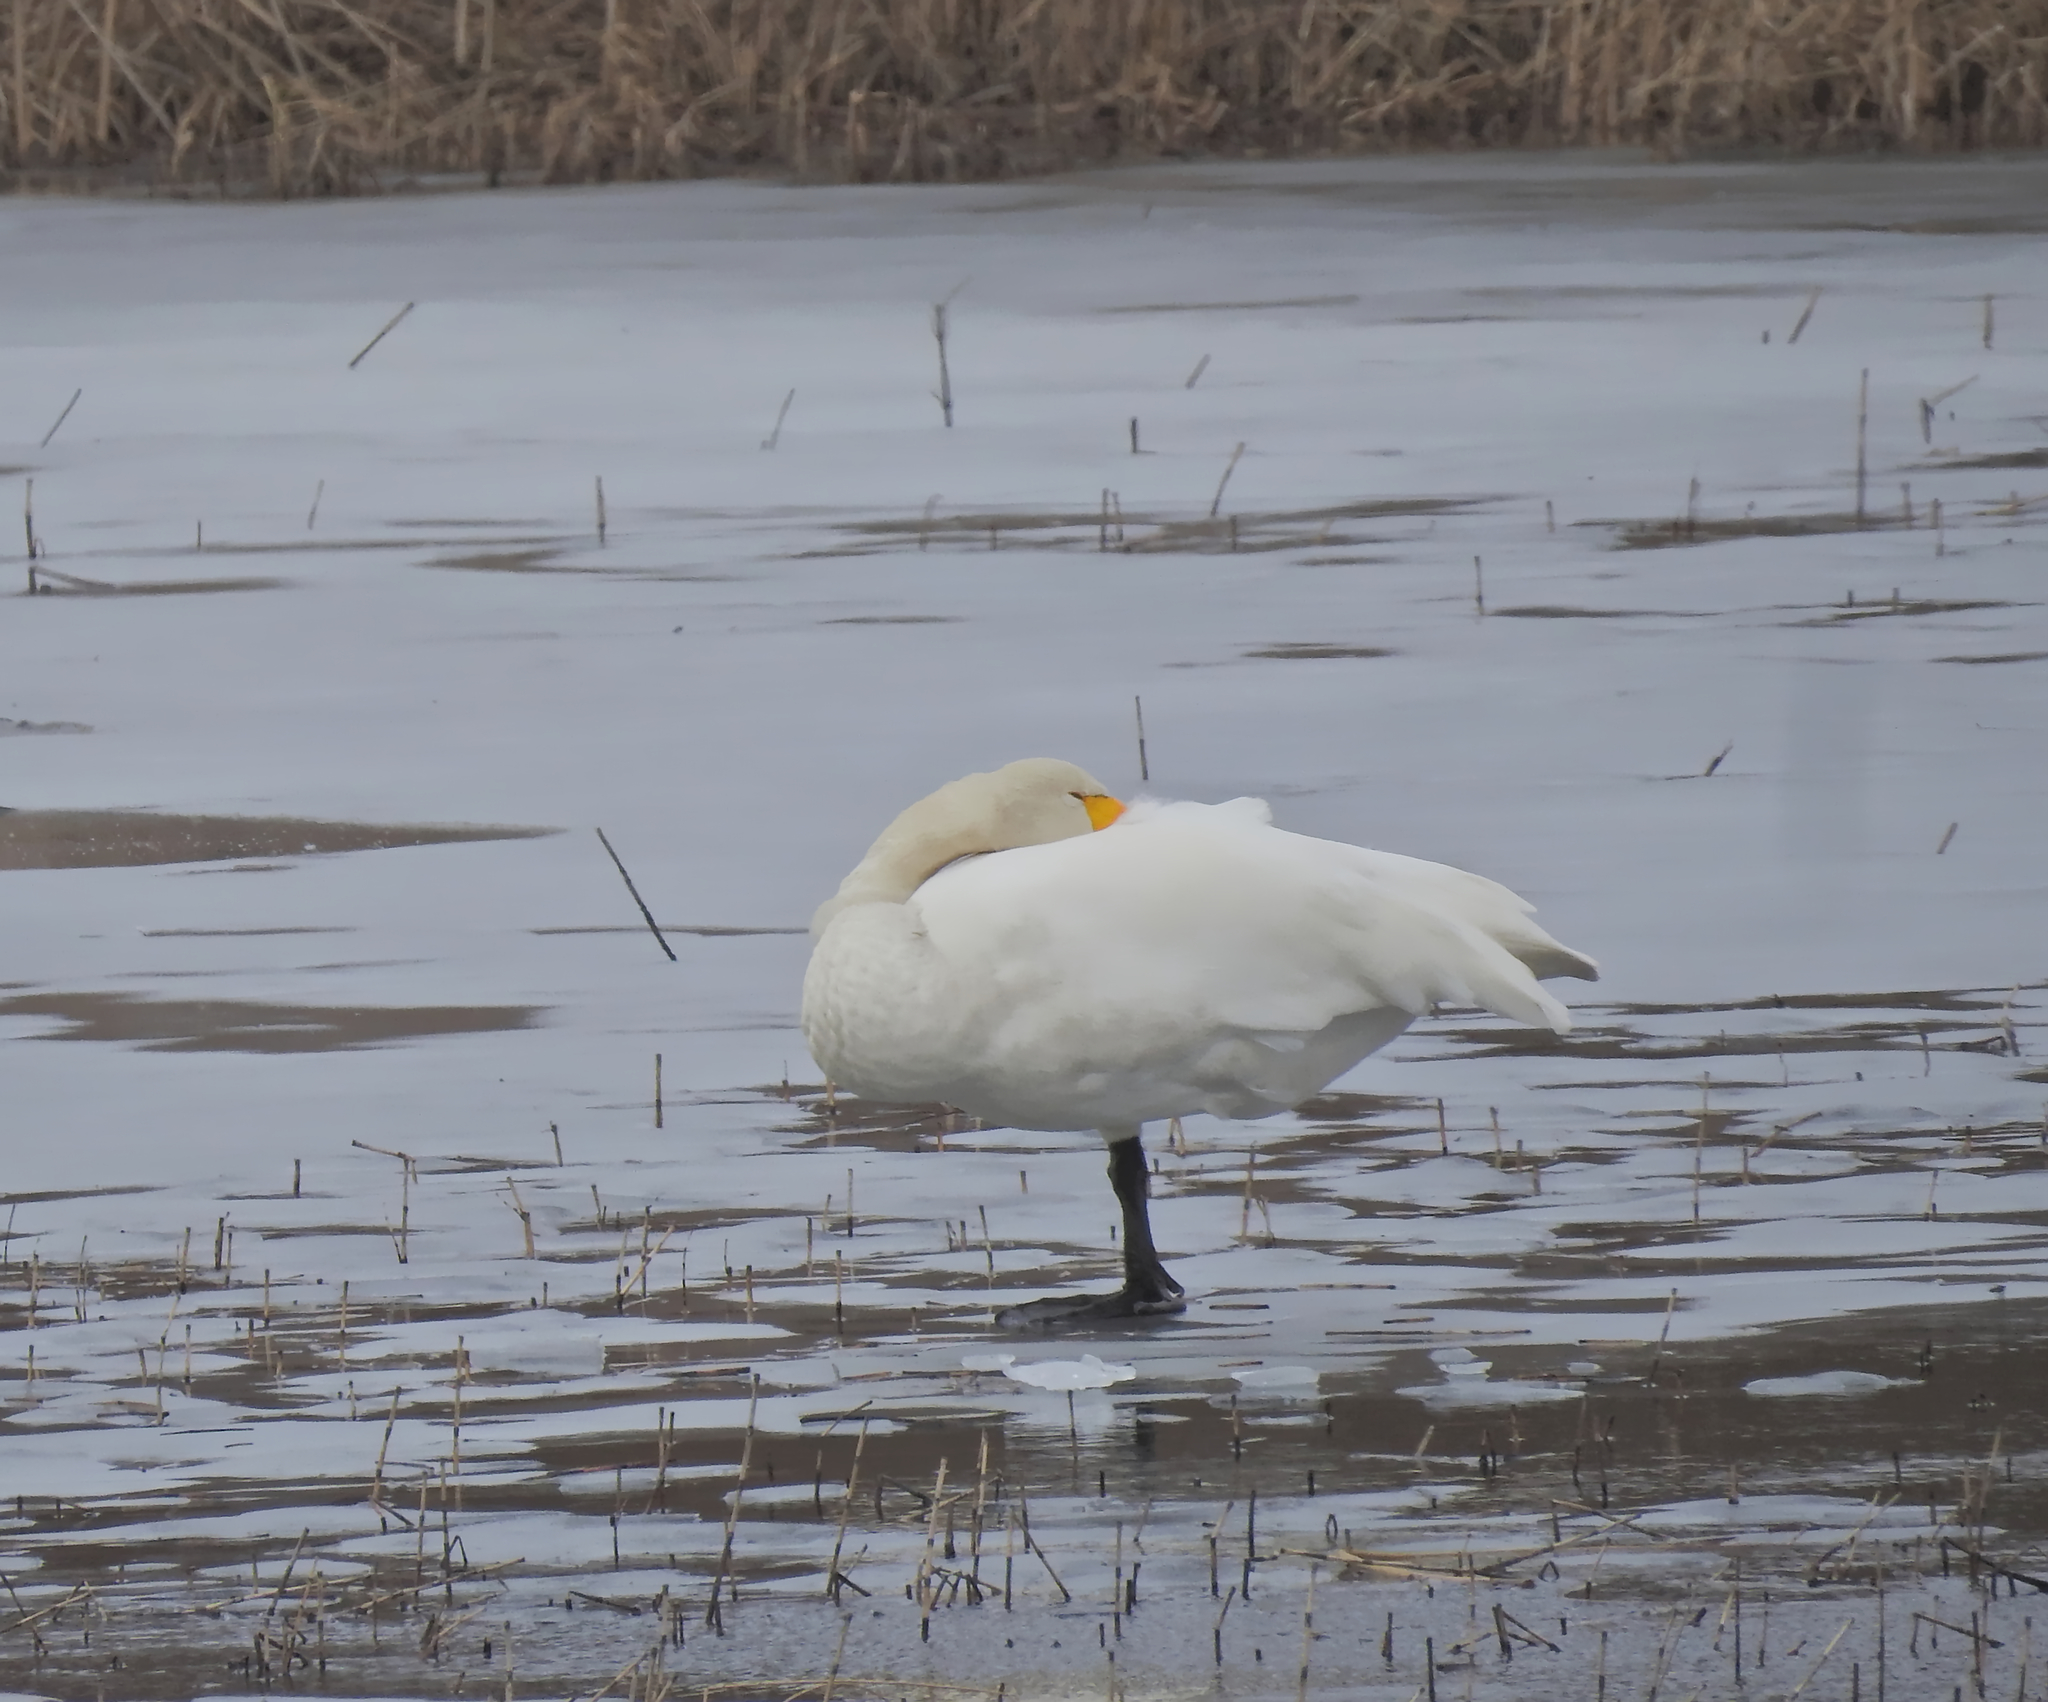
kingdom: Animalia
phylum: Chordata
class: Aves
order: Anseriformes
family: Anatidae
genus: Cygnus
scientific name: Cygnus cygnus
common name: Whooper swan
